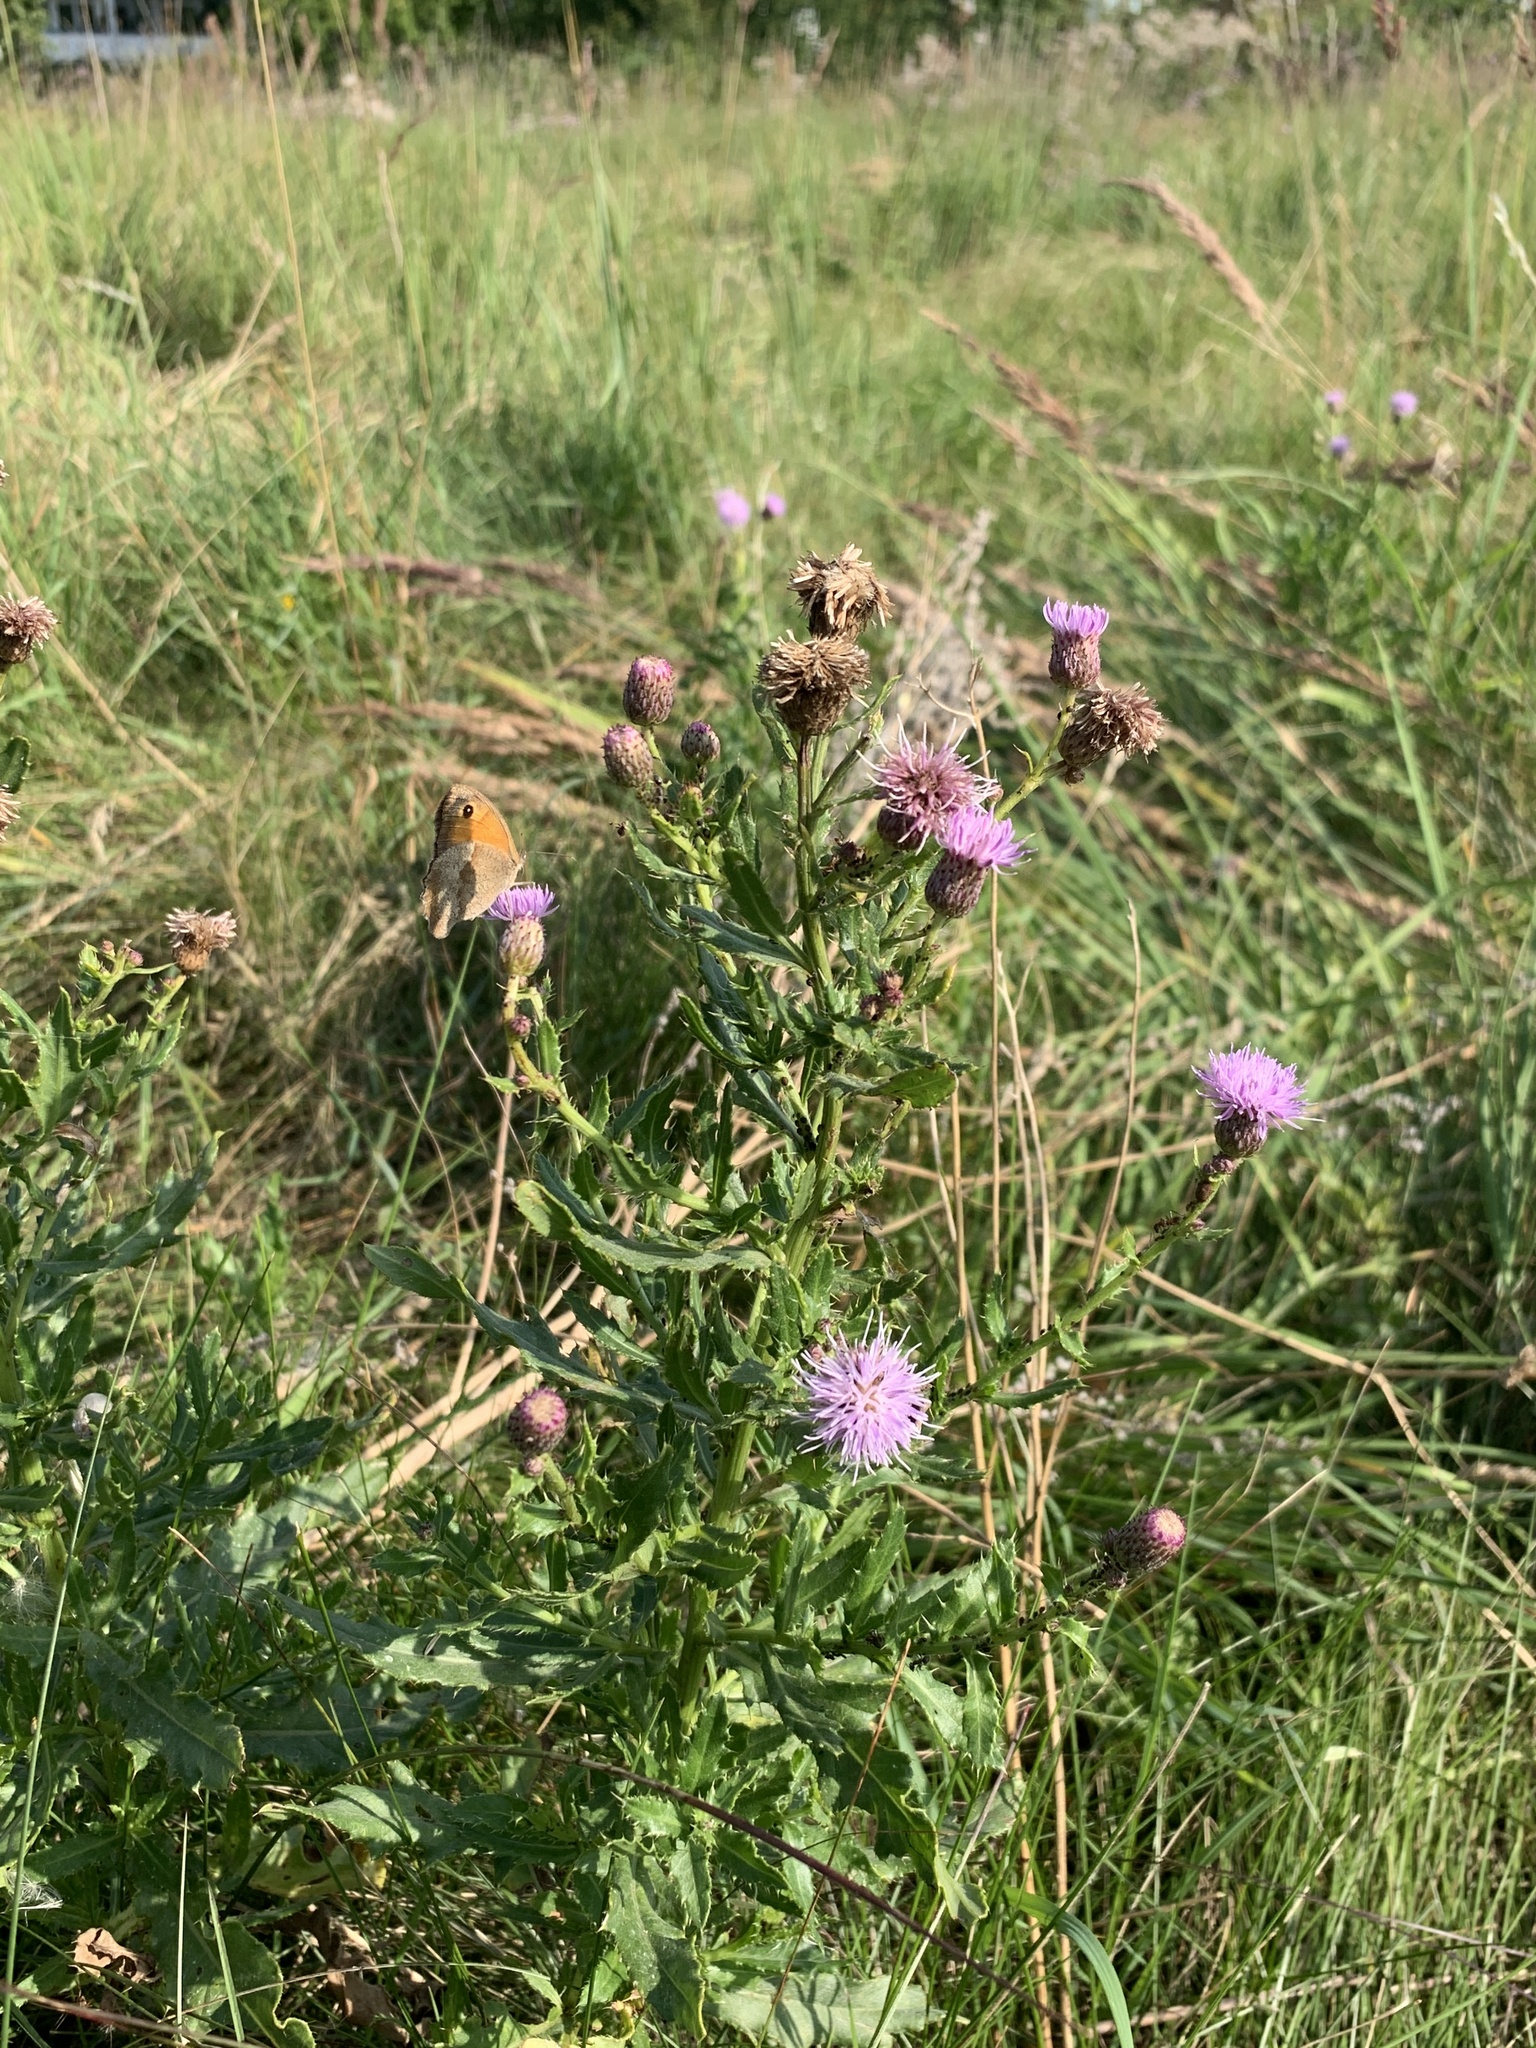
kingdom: Animalia
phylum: Arthropoda
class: Insecta
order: Lepidoptera
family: Nymphalidae
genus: Maniola
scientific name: Maniola jurtina
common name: Meadow brown
